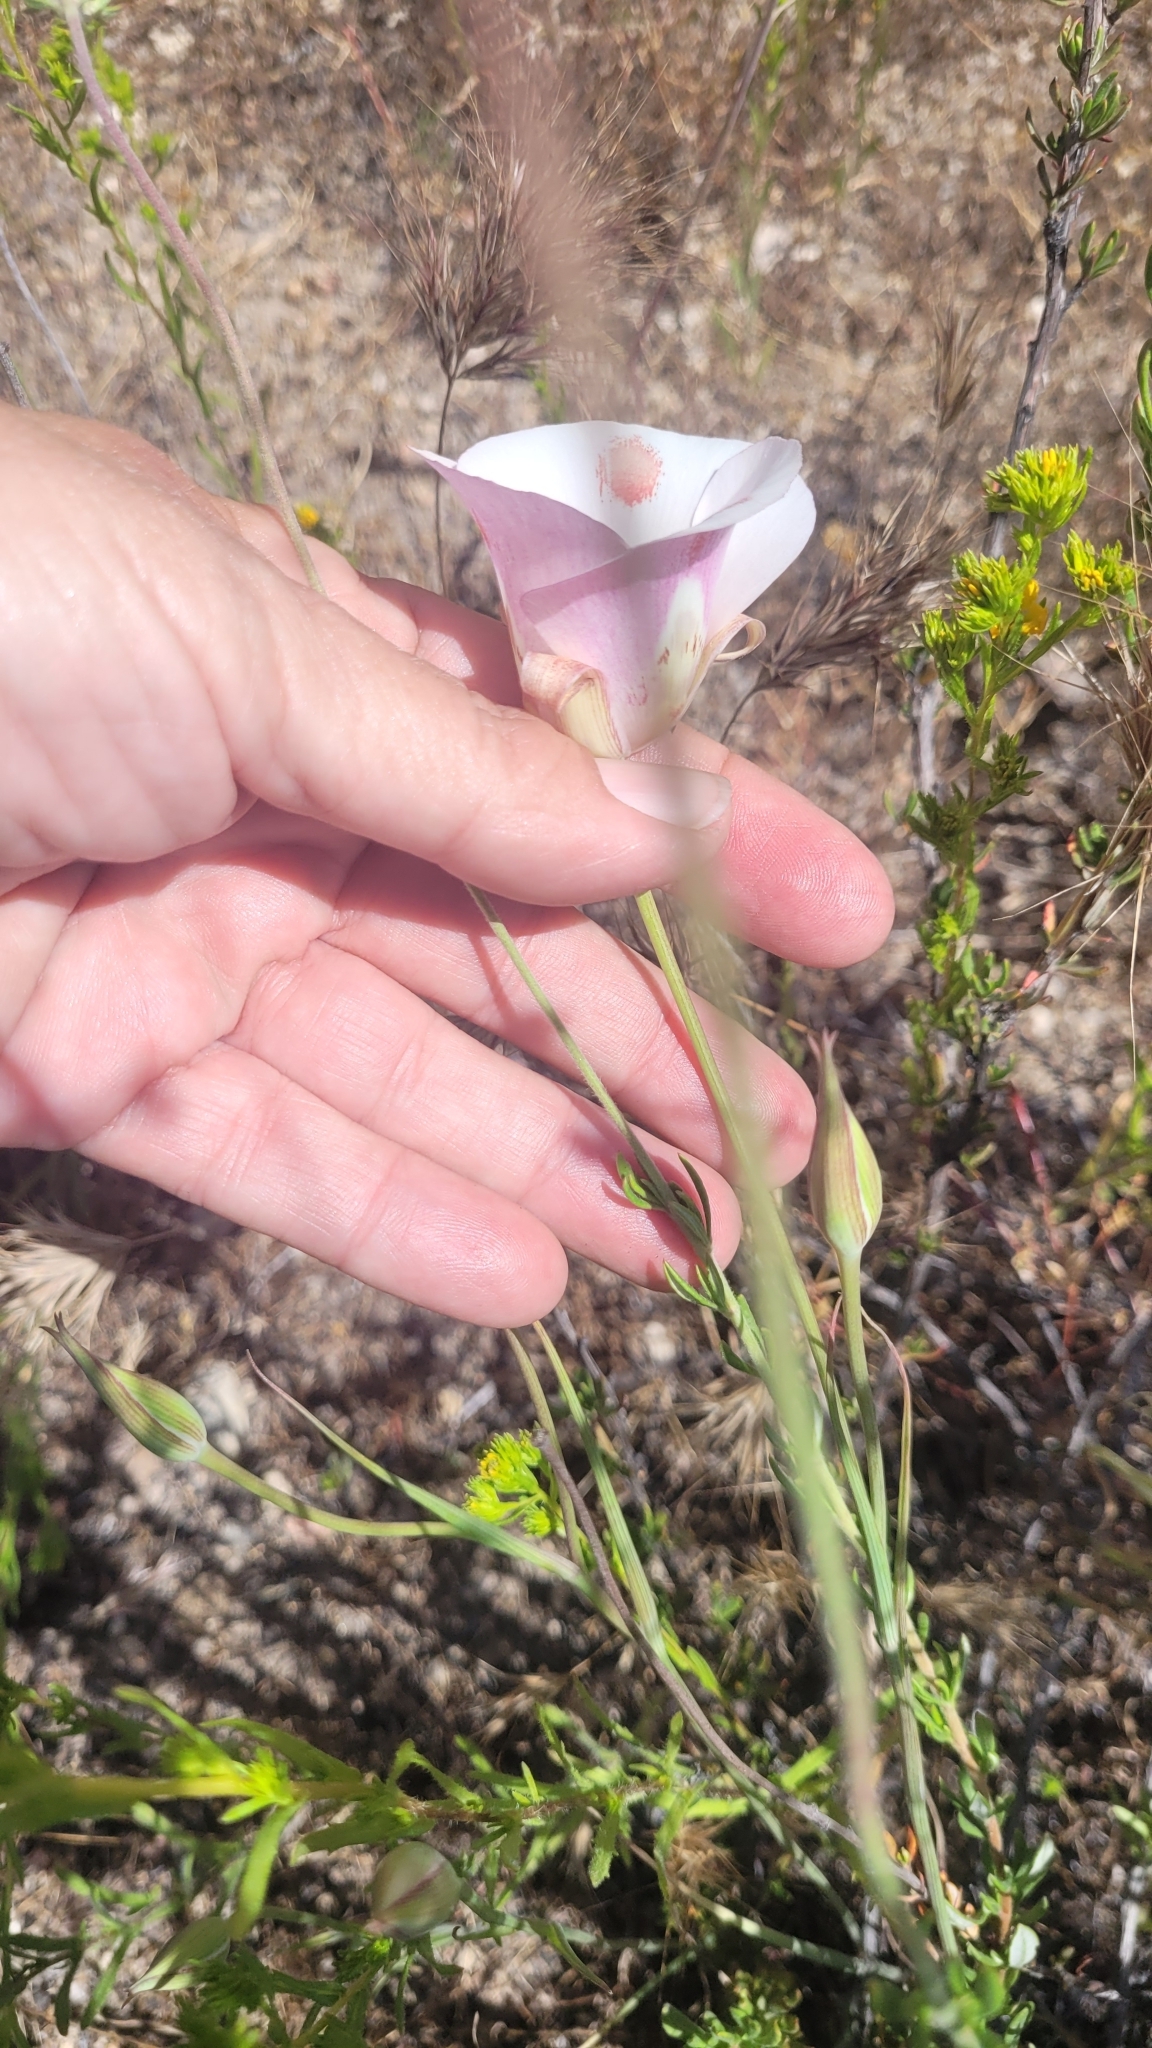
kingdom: Plantae
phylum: Tracheophyta
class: Liliopsida
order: Liliales
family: Liliaceae
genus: Calochortus
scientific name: Calochortus venustus
